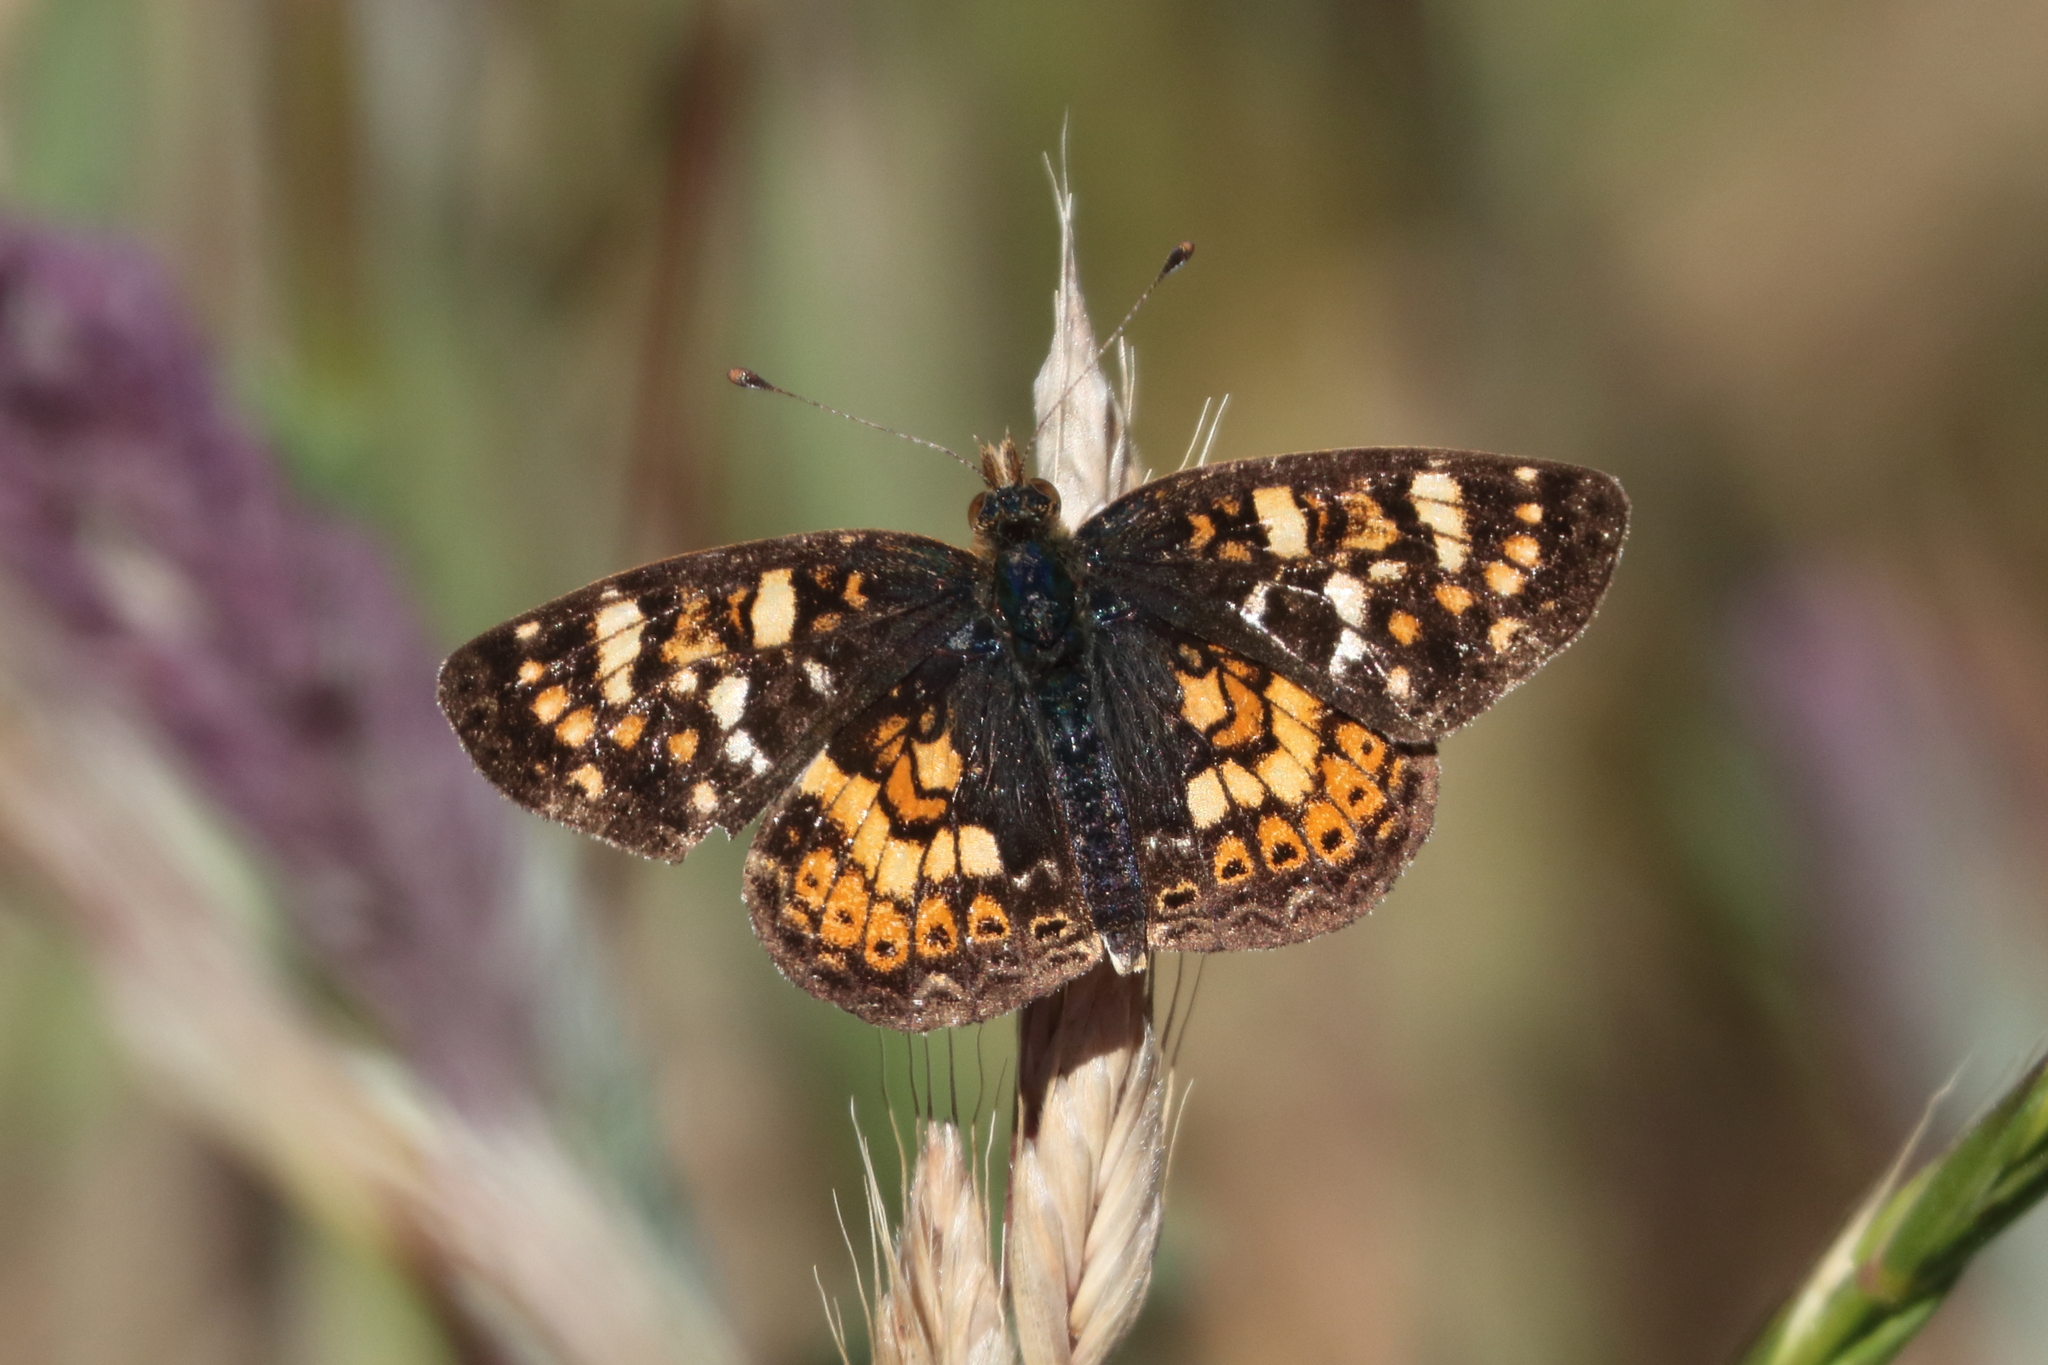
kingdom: Animalia
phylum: Arthropoda
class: Insecta
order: Lepidoptera
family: Nymphalidae
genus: Phyciodes
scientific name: Phyciodes tharos
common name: Pearl crescent
